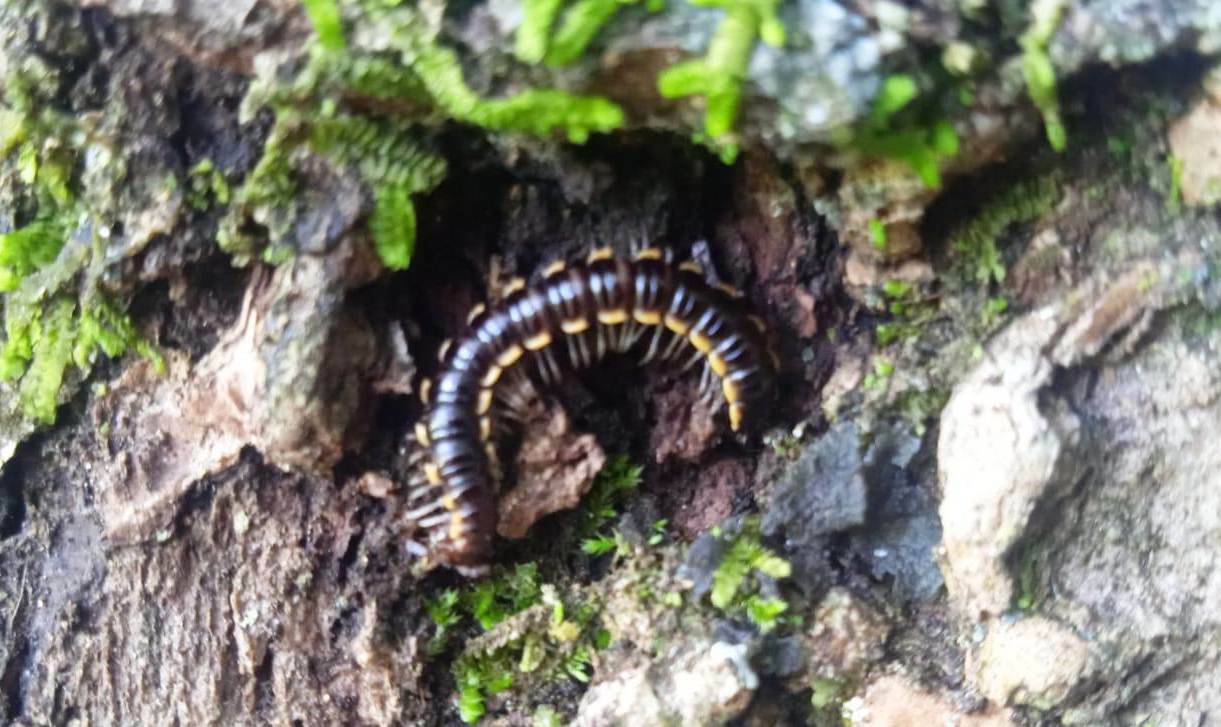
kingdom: Animalia
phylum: Arthropoda
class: Diplopoda
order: Polydesmida
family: Paradoxosomatidae
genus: Orthomorpha
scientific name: Orthomorpha coarctata
